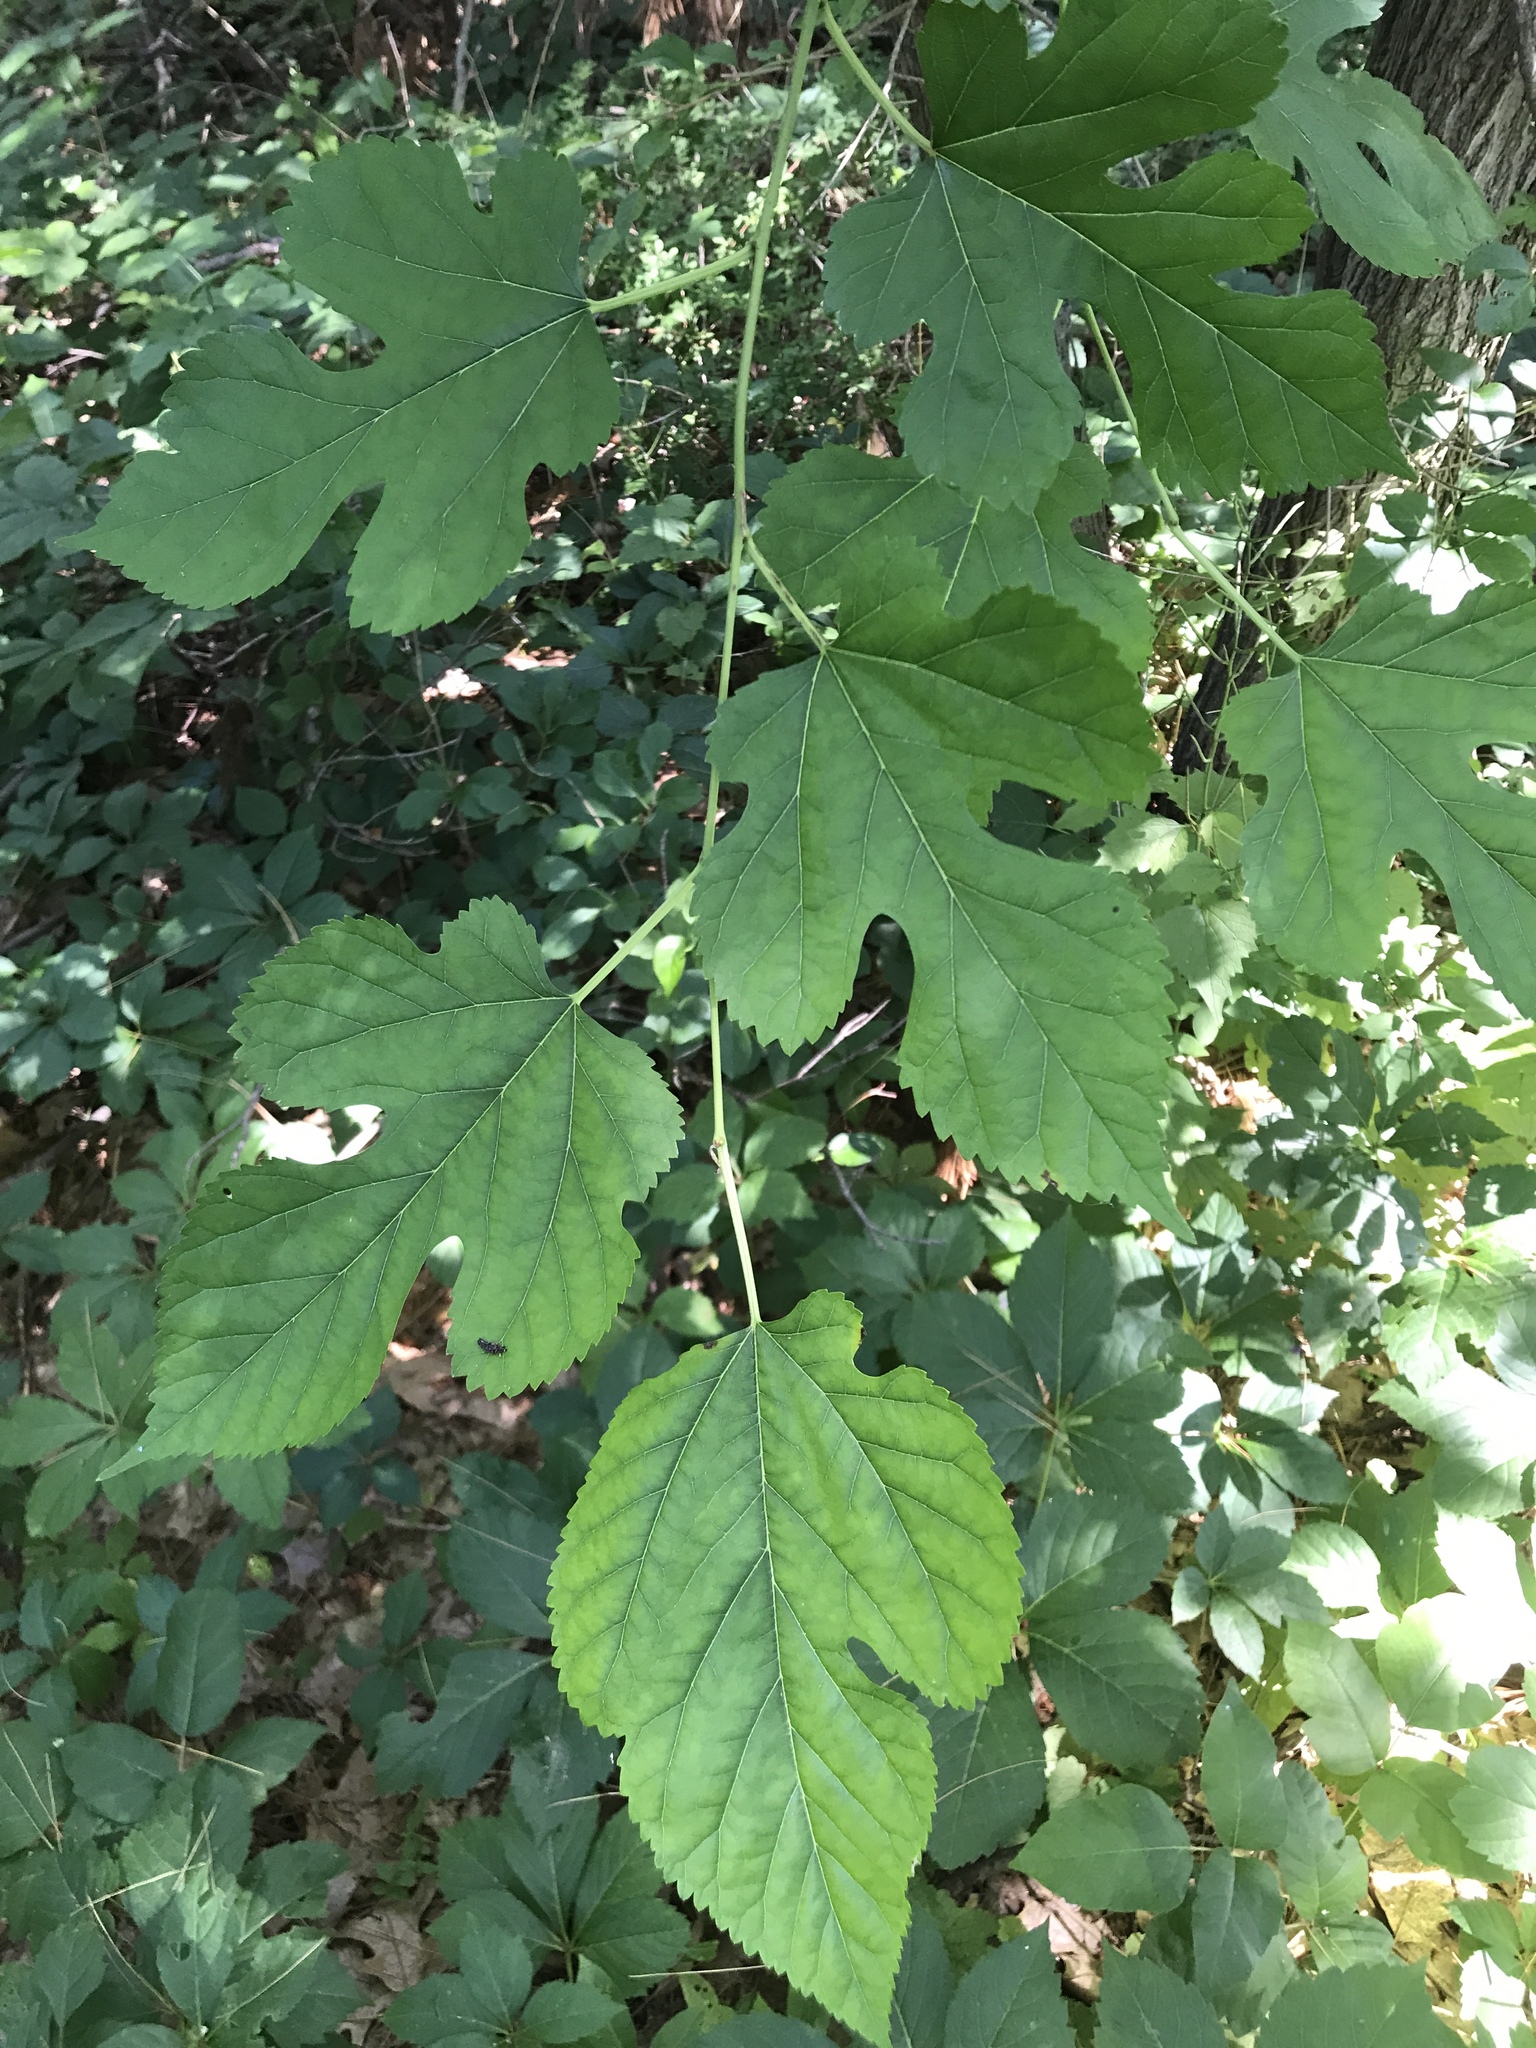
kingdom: Plantae
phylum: Tracheophyta
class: Magnoliopsida
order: Rosales
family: Moraceae
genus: Morus
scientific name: Morus alba
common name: White mulberry
